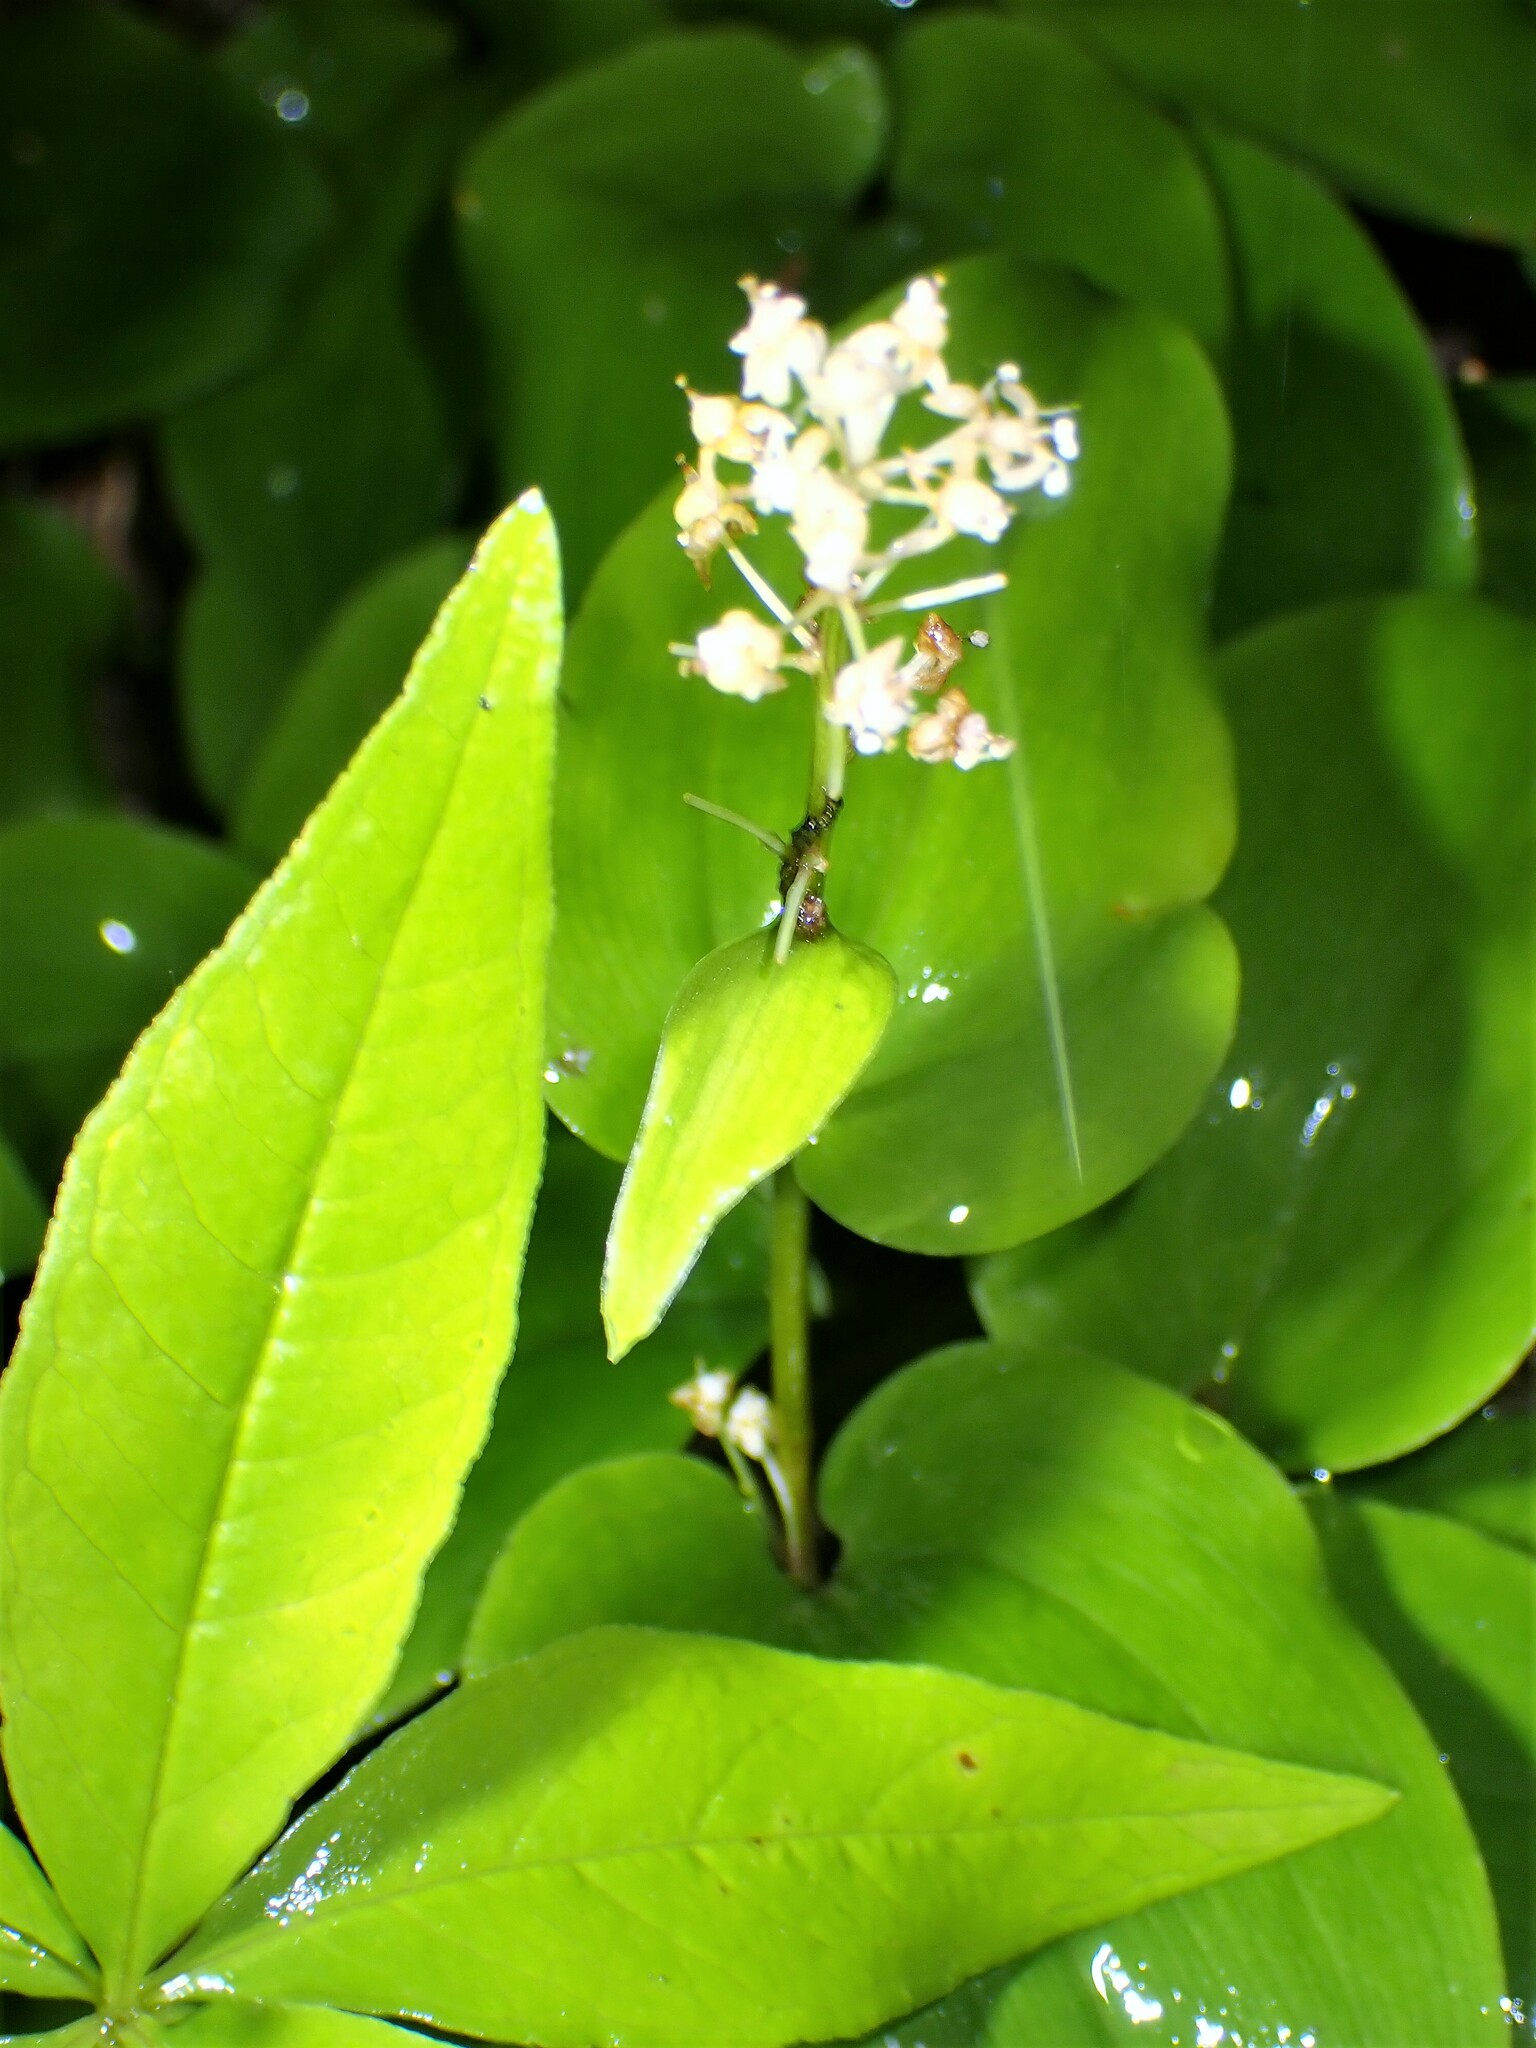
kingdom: Plantae
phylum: Tracheophyta
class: Liliopsida
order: Asparagales
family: Asparagaceae
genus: Maianthemum
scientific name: Maianthemum canadense
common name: False lily-of-the-valley
